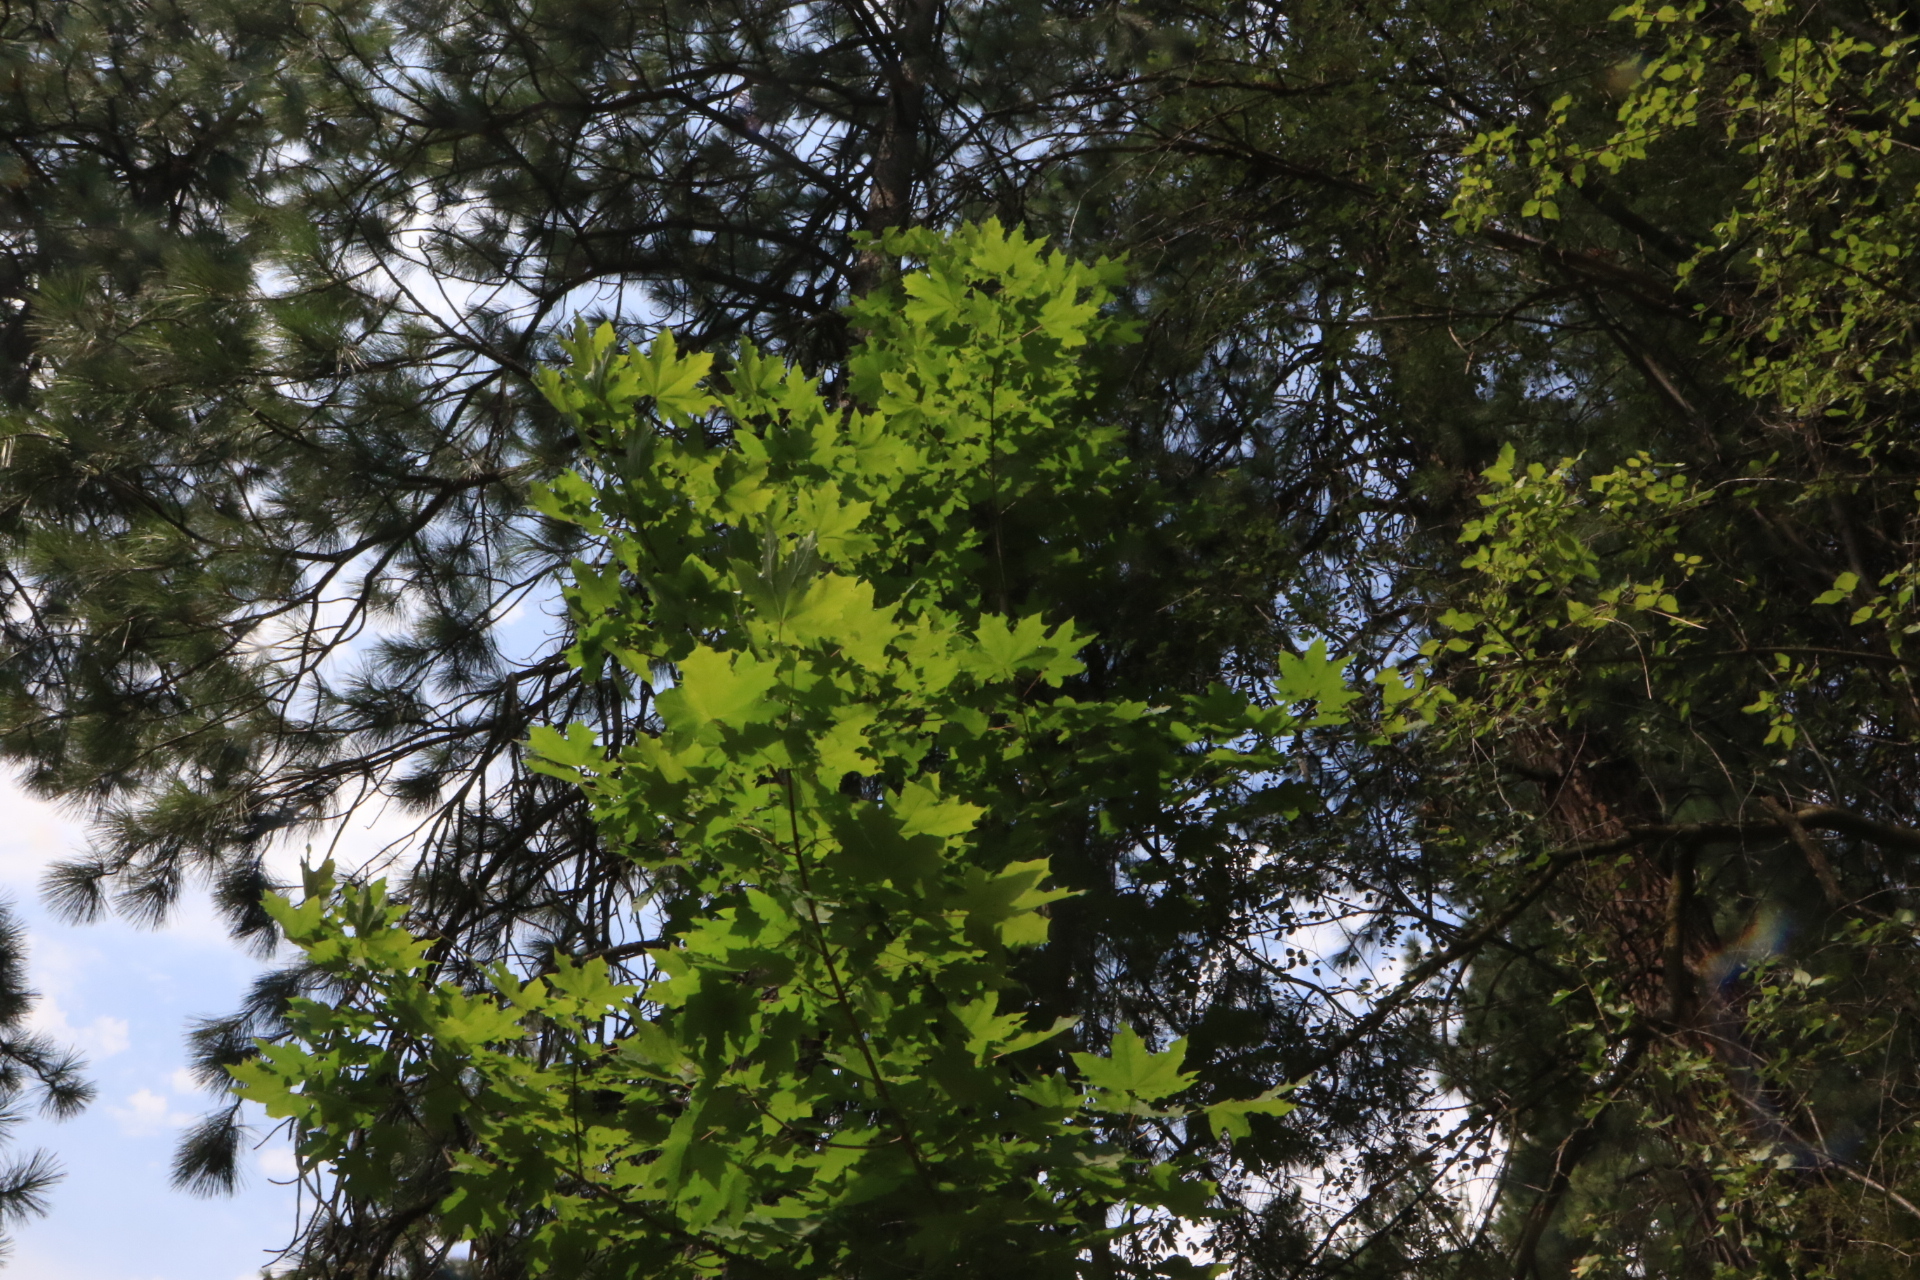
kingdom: Plantae
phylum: Tracheophyta
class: Magnoliopsida
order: Sapindales
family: Sapindaceae
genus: Acer
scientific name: Acer platanoides
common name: Norway maple
